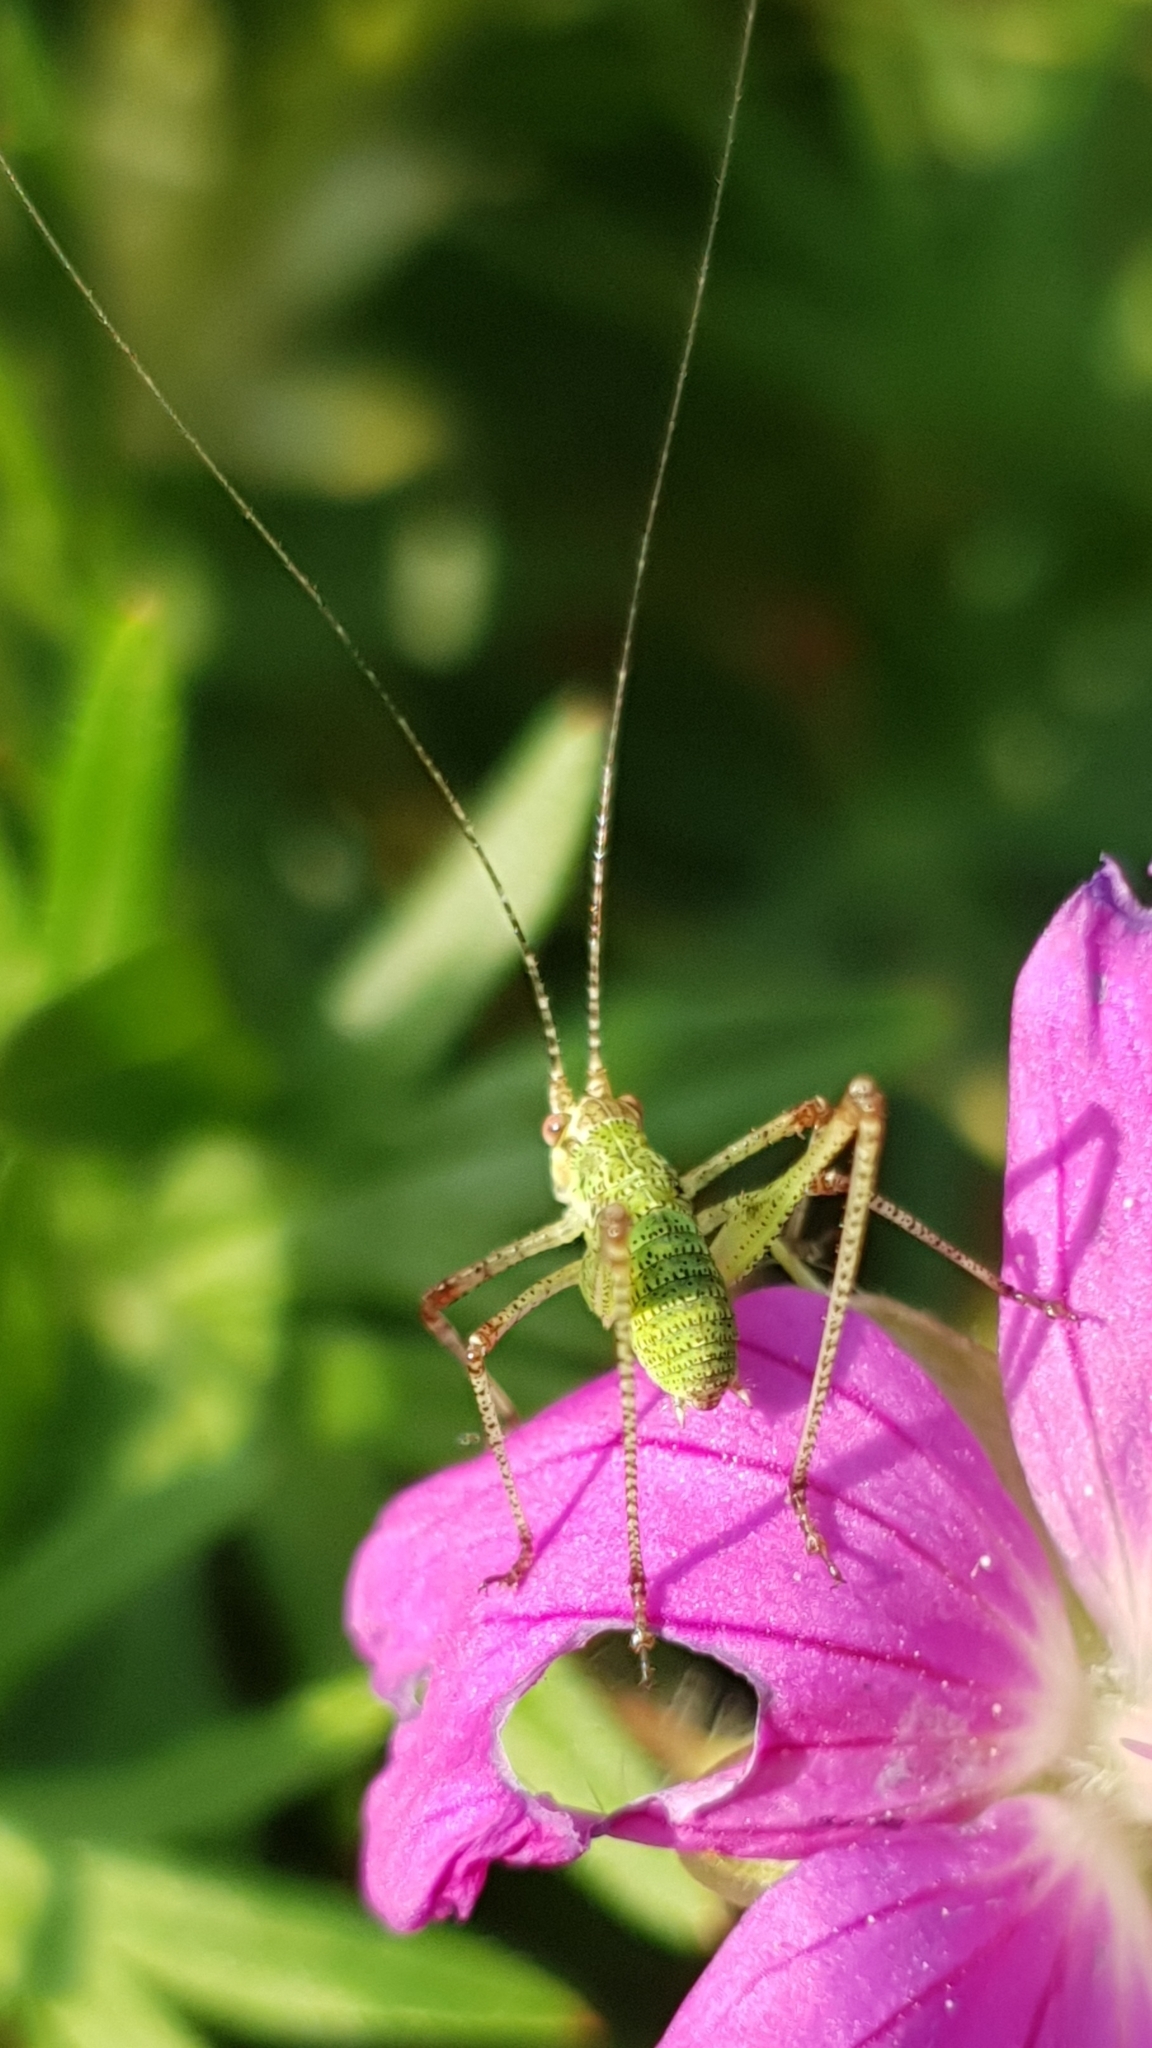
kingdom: Animalia
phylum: Arthropoda
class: Insecta
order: Orthoptera
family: Tettigoniidae
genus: Phaneroptera
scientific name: Phaneroptera nana
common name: Southern sickle bush-cricket
